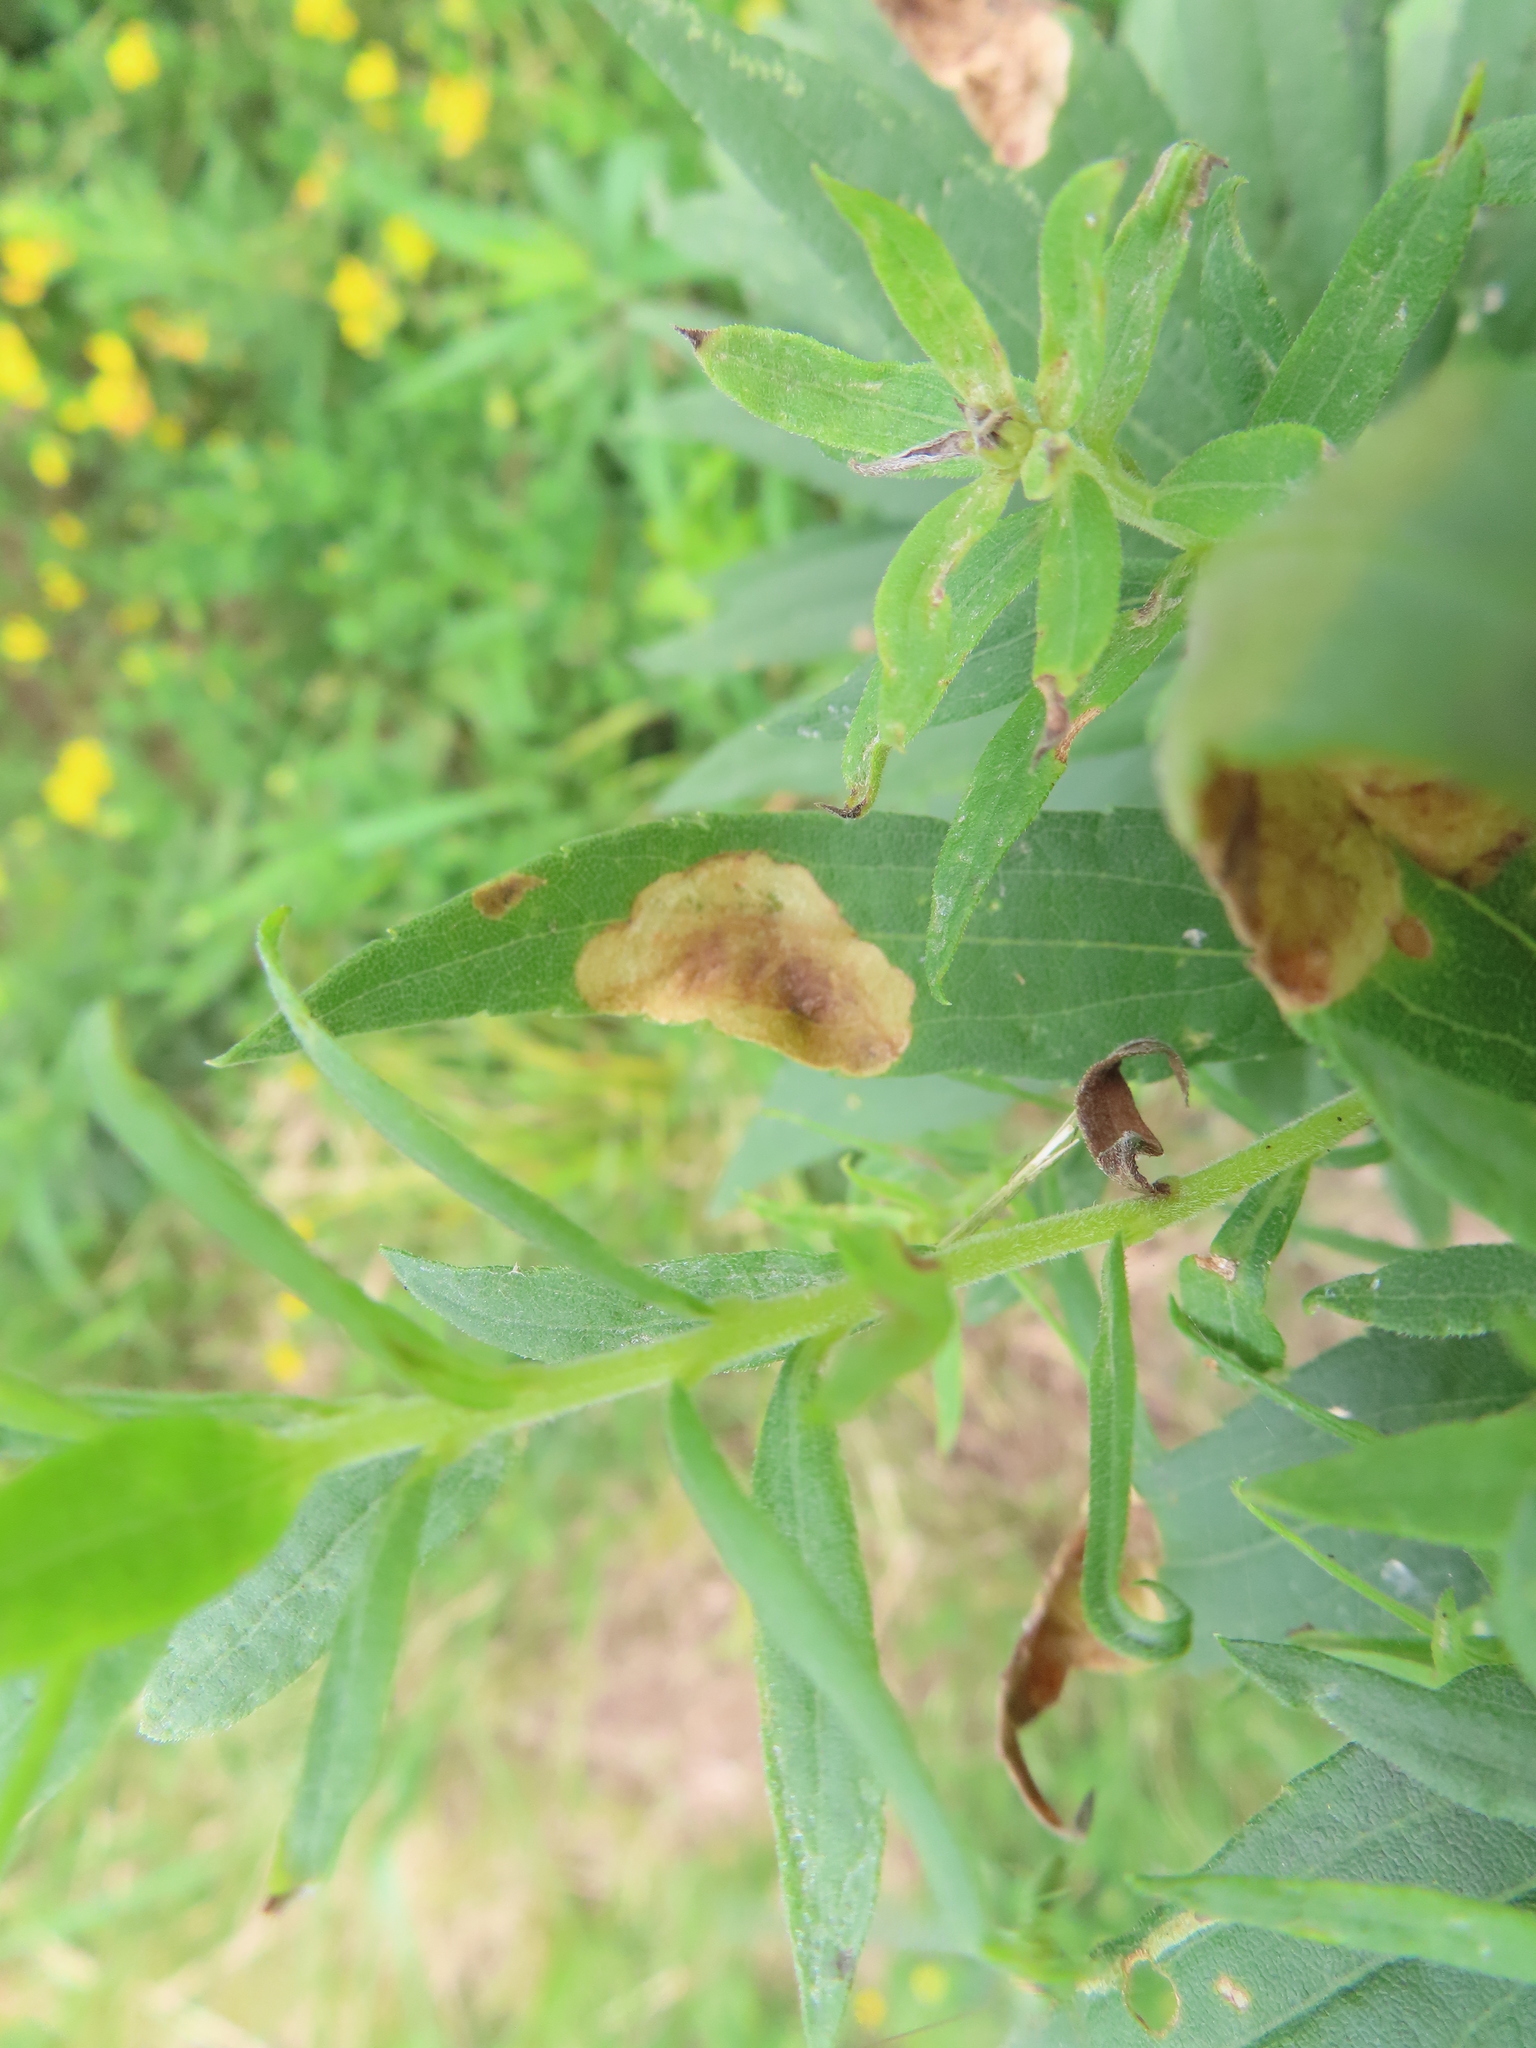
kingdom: Animalia
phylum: Arthropoda
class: Insecta
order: Diptera
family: Agromyzidae
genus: Nemorimyza
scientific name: Nemorimyza posticata
